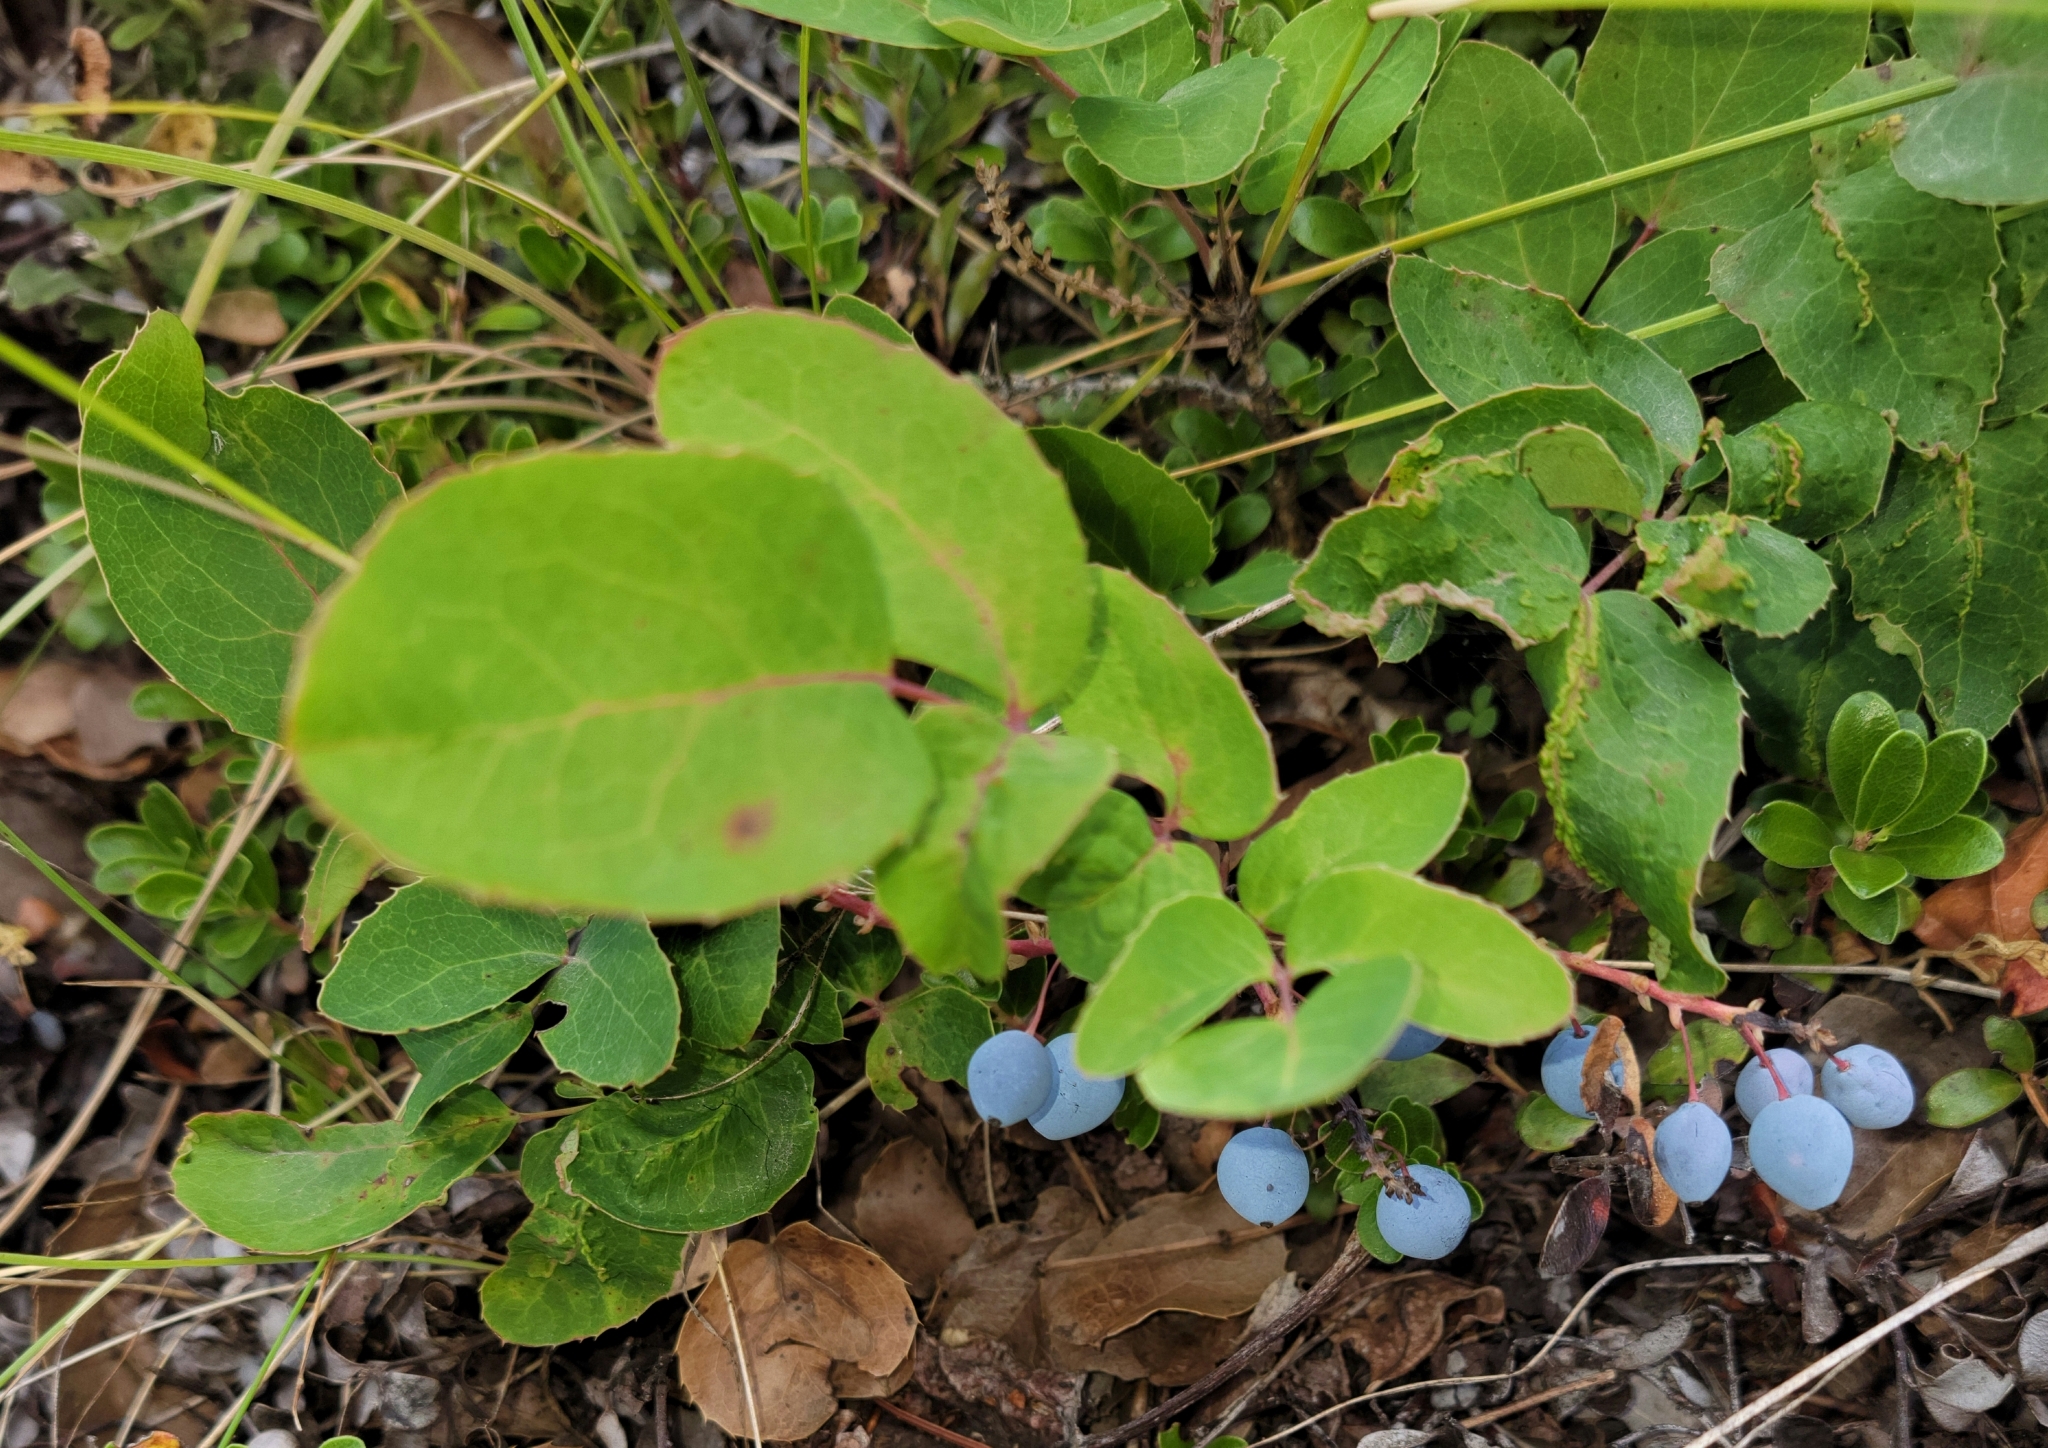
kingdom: Plantae
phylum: Tracheophyta
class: Magnoliopsida
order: Ranunculales
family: Berberidaceae
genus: Mahonia
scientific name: Mahonia repens
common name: Creeping oregon-grape
